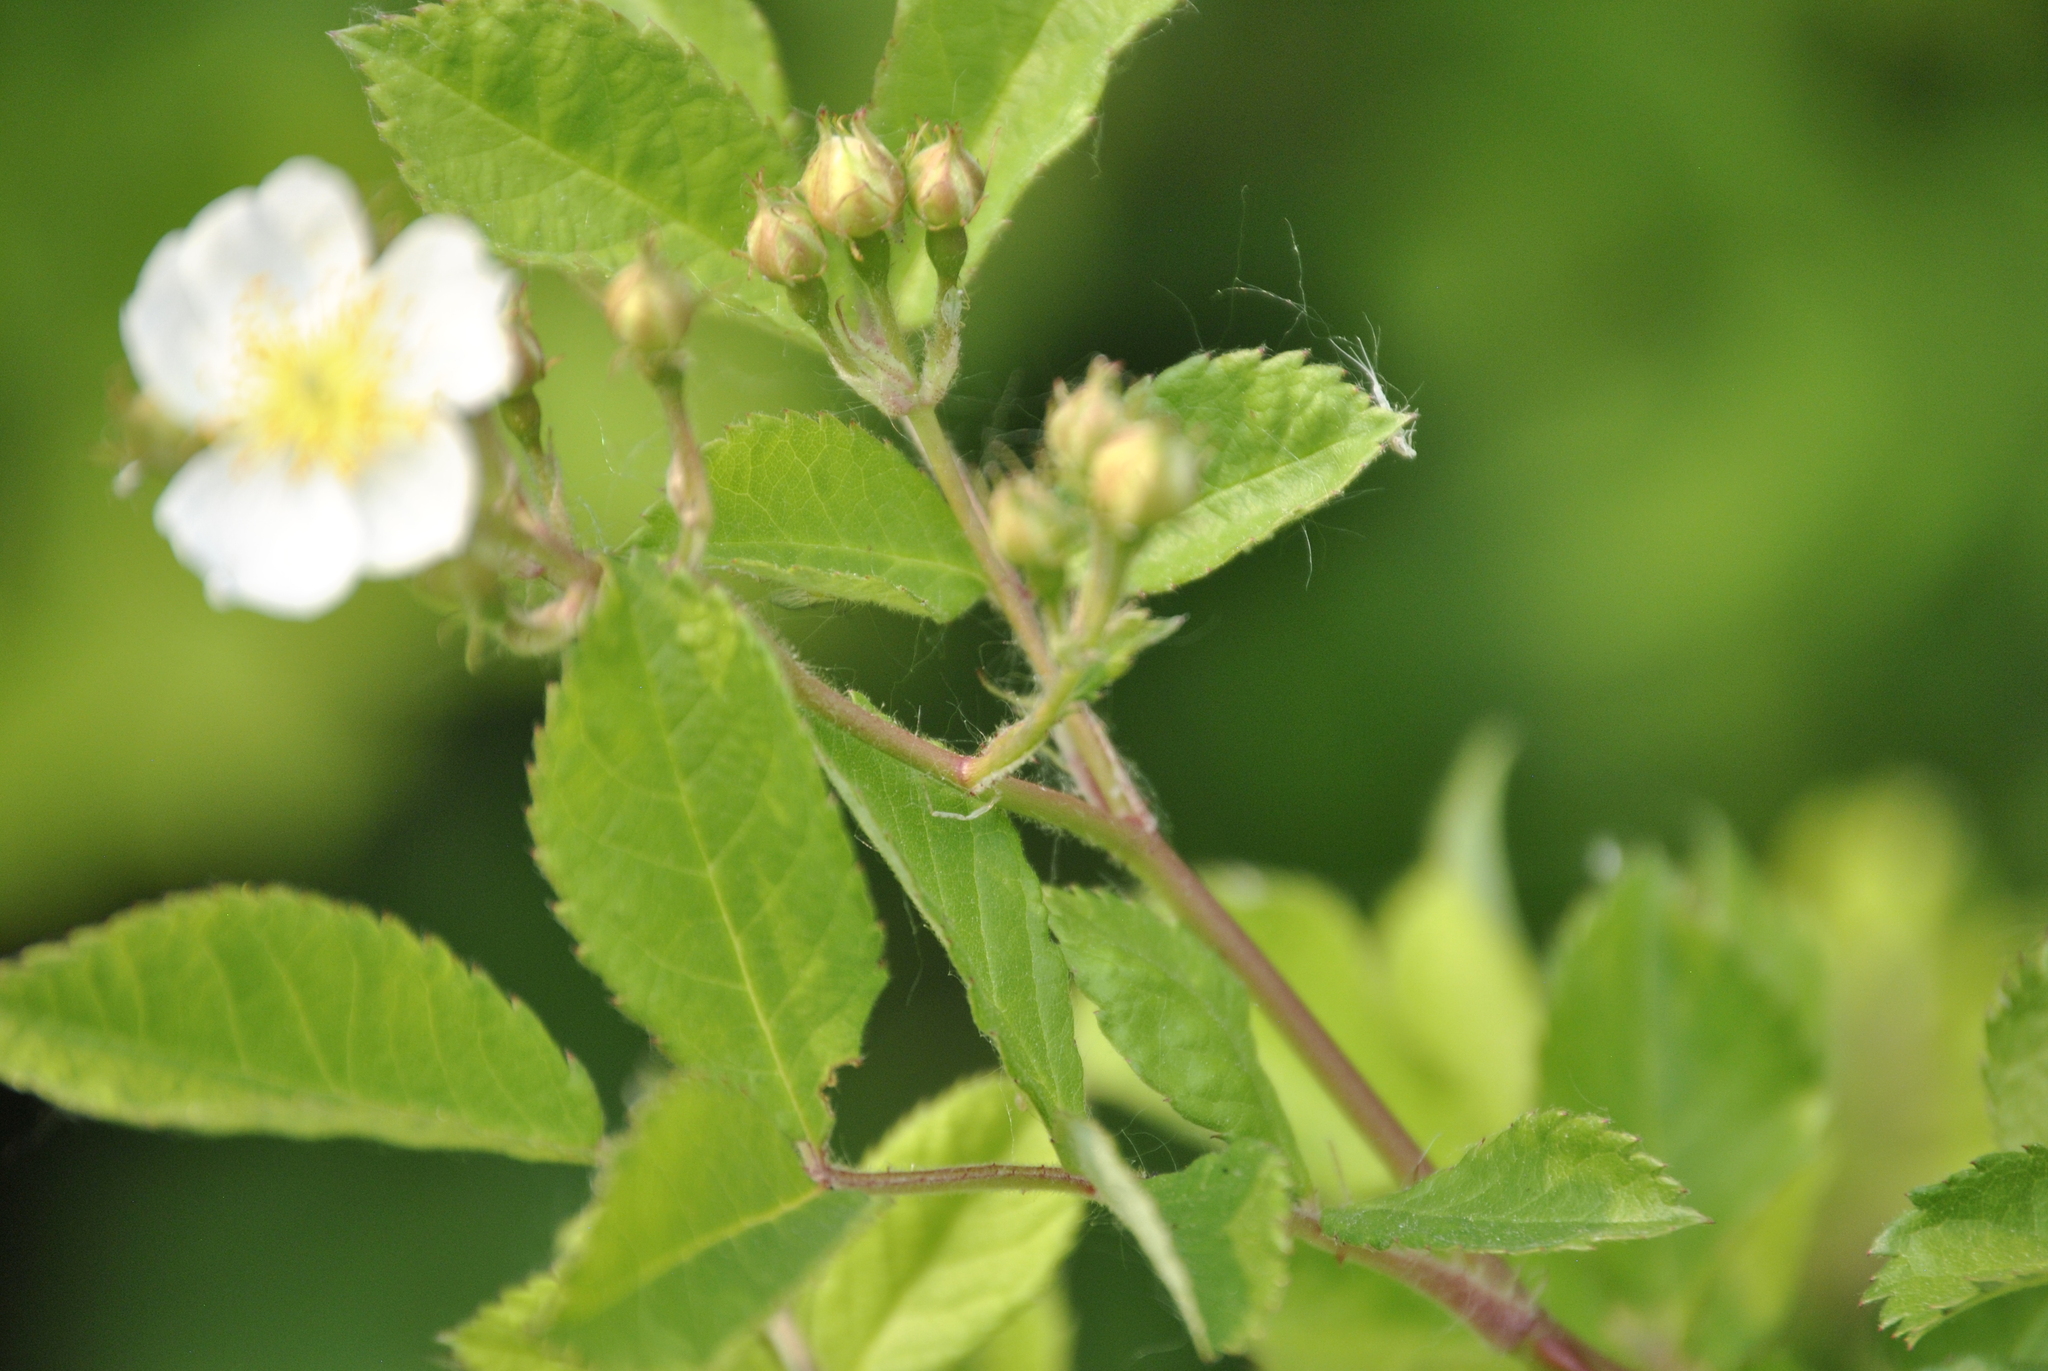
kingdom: Plantae
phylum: Tracheophyta
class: Magnoliopsida
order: Rosales
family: Rosaceae
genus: Rosa
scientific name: Rosa multiflora
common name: Multiflora rose
